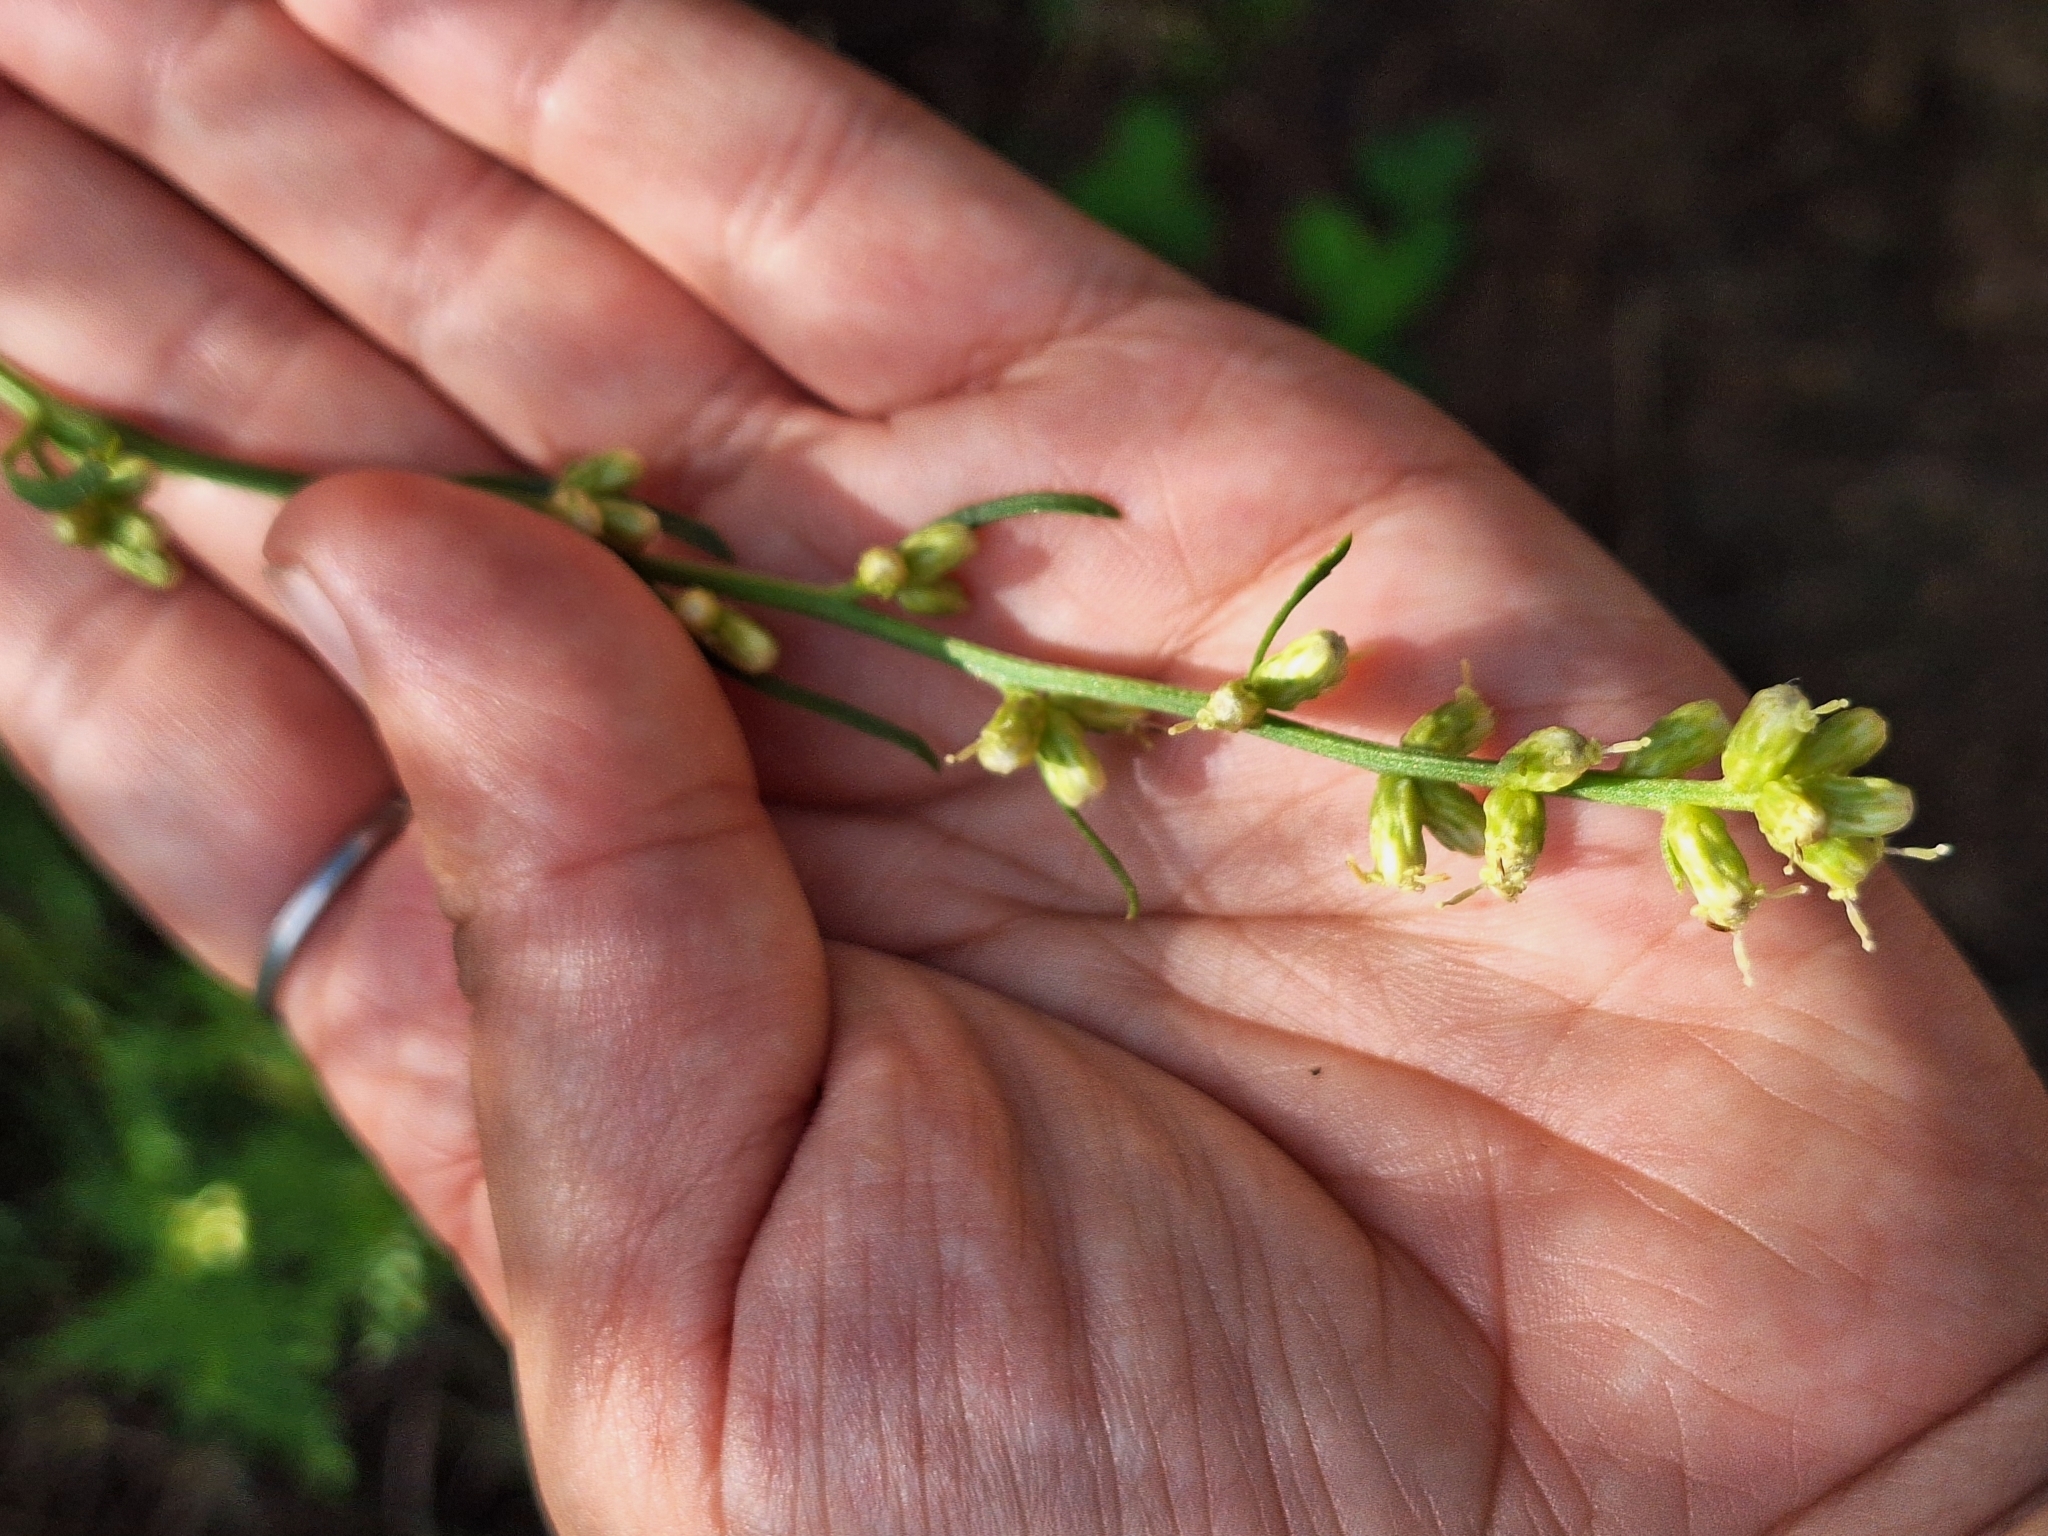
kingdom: Plantae
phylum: Tracheophyta
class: Magnoliopsida
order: Asterales
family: Asteraceae
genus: Baccharis
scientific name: Baccharis spicata
